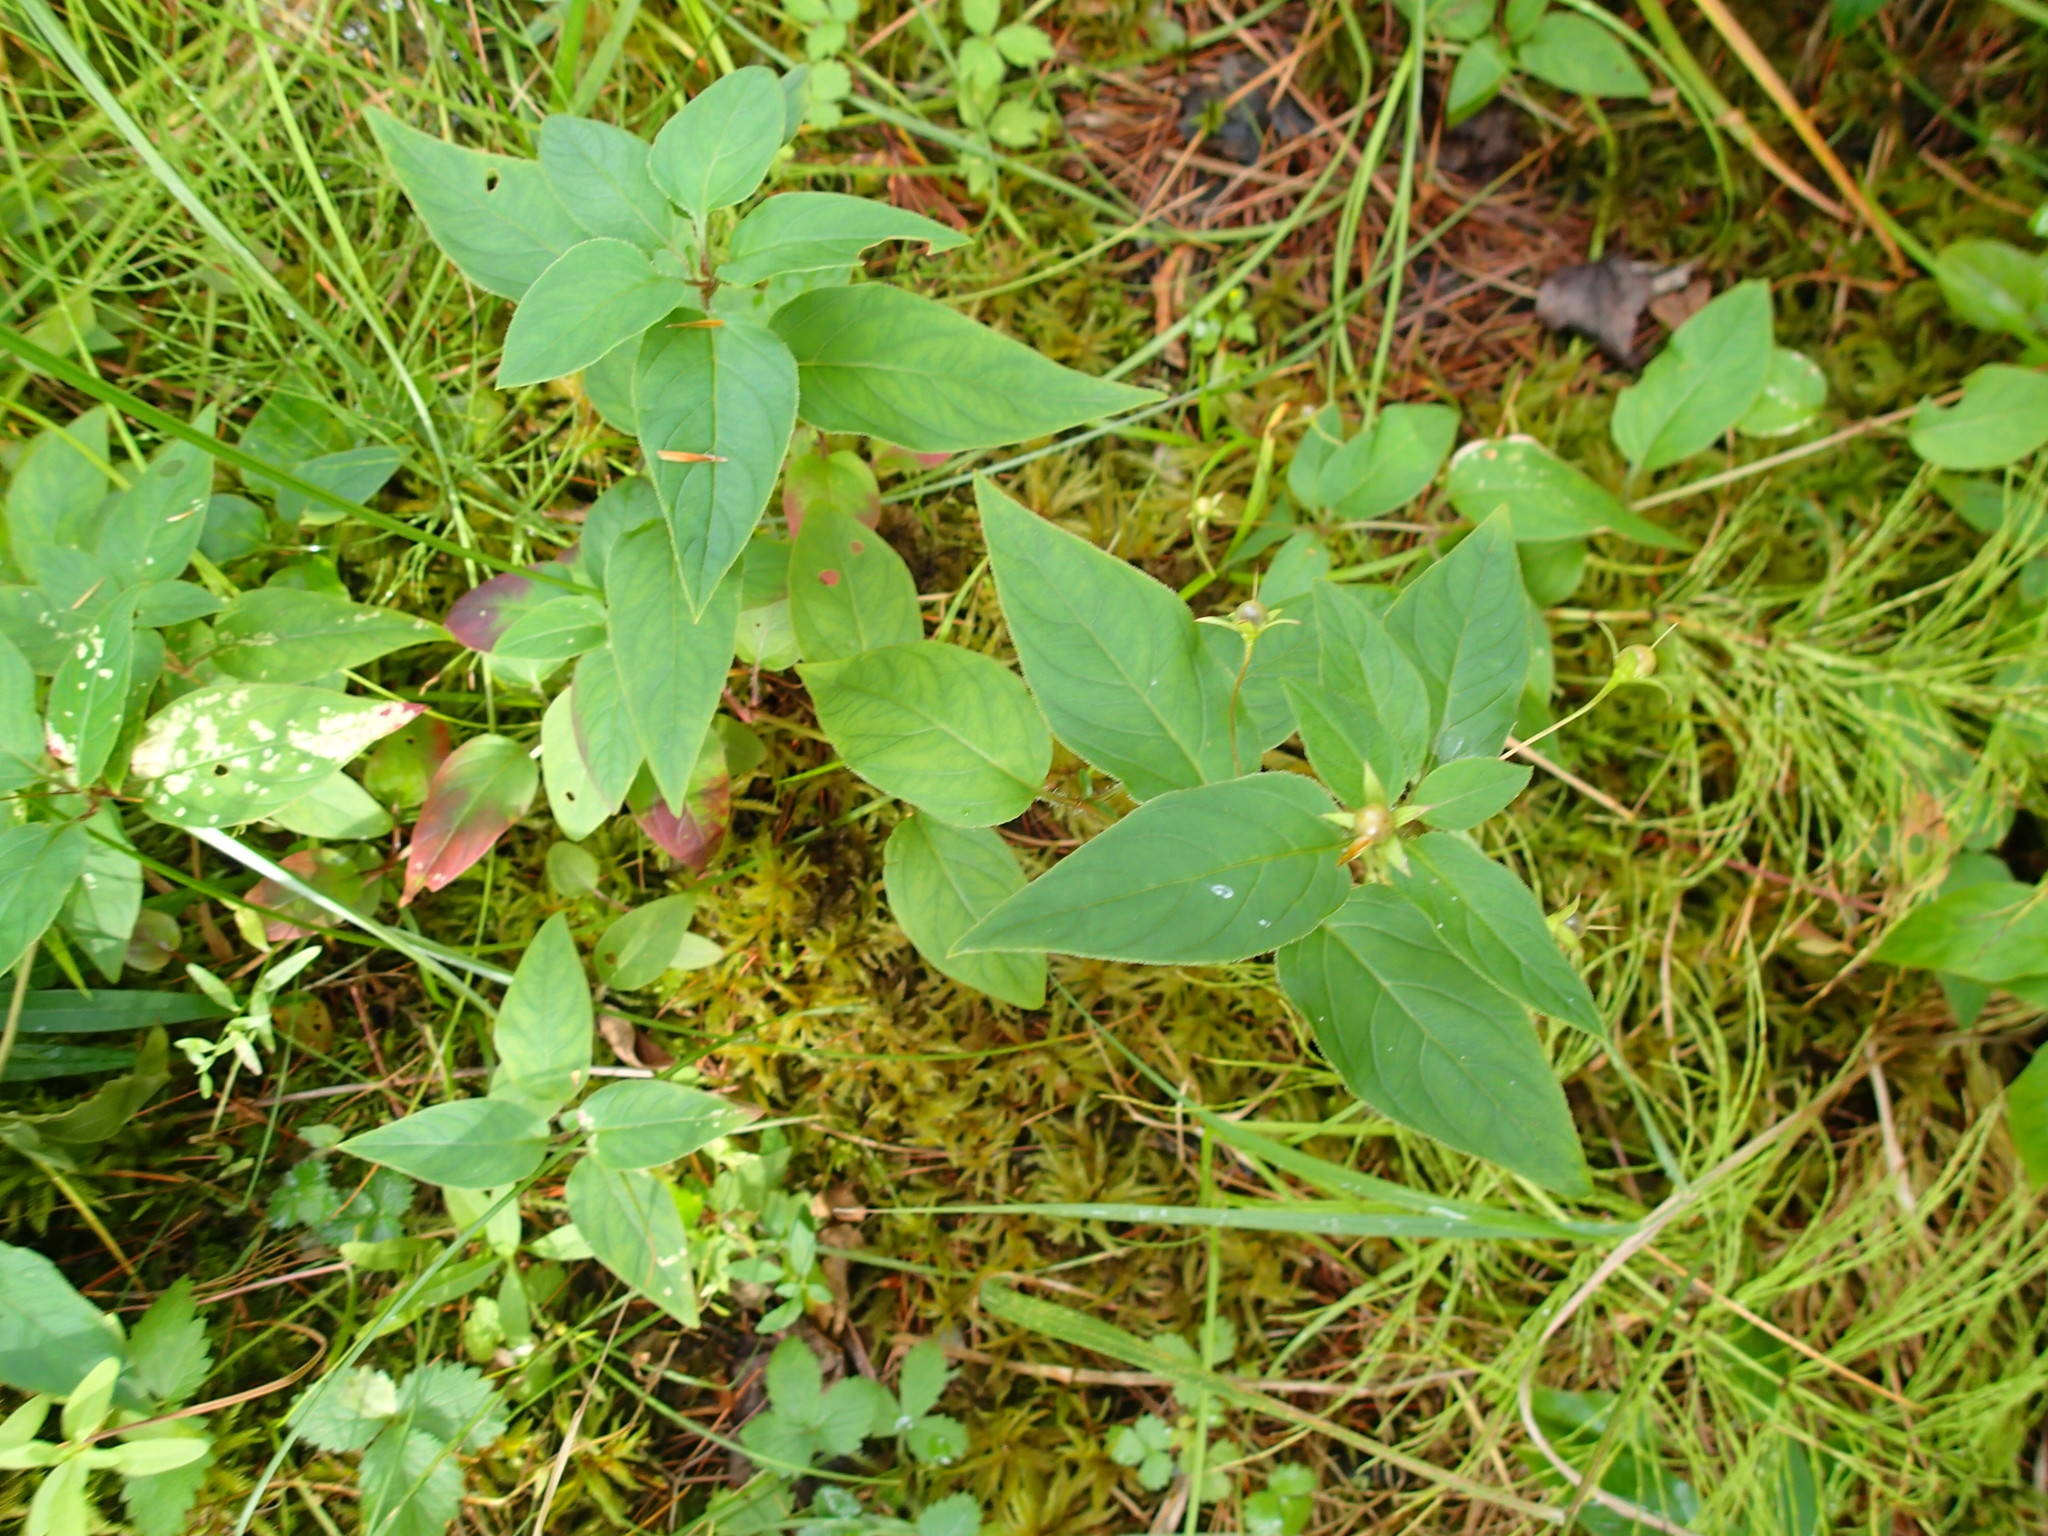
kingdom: Plantae
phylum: Tracheophyta
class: Magnoliopsida
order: Ericales
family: Primulaceae
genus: Lysimachia
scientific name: Lysimachia ciliata
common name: Fringed loosestrife
